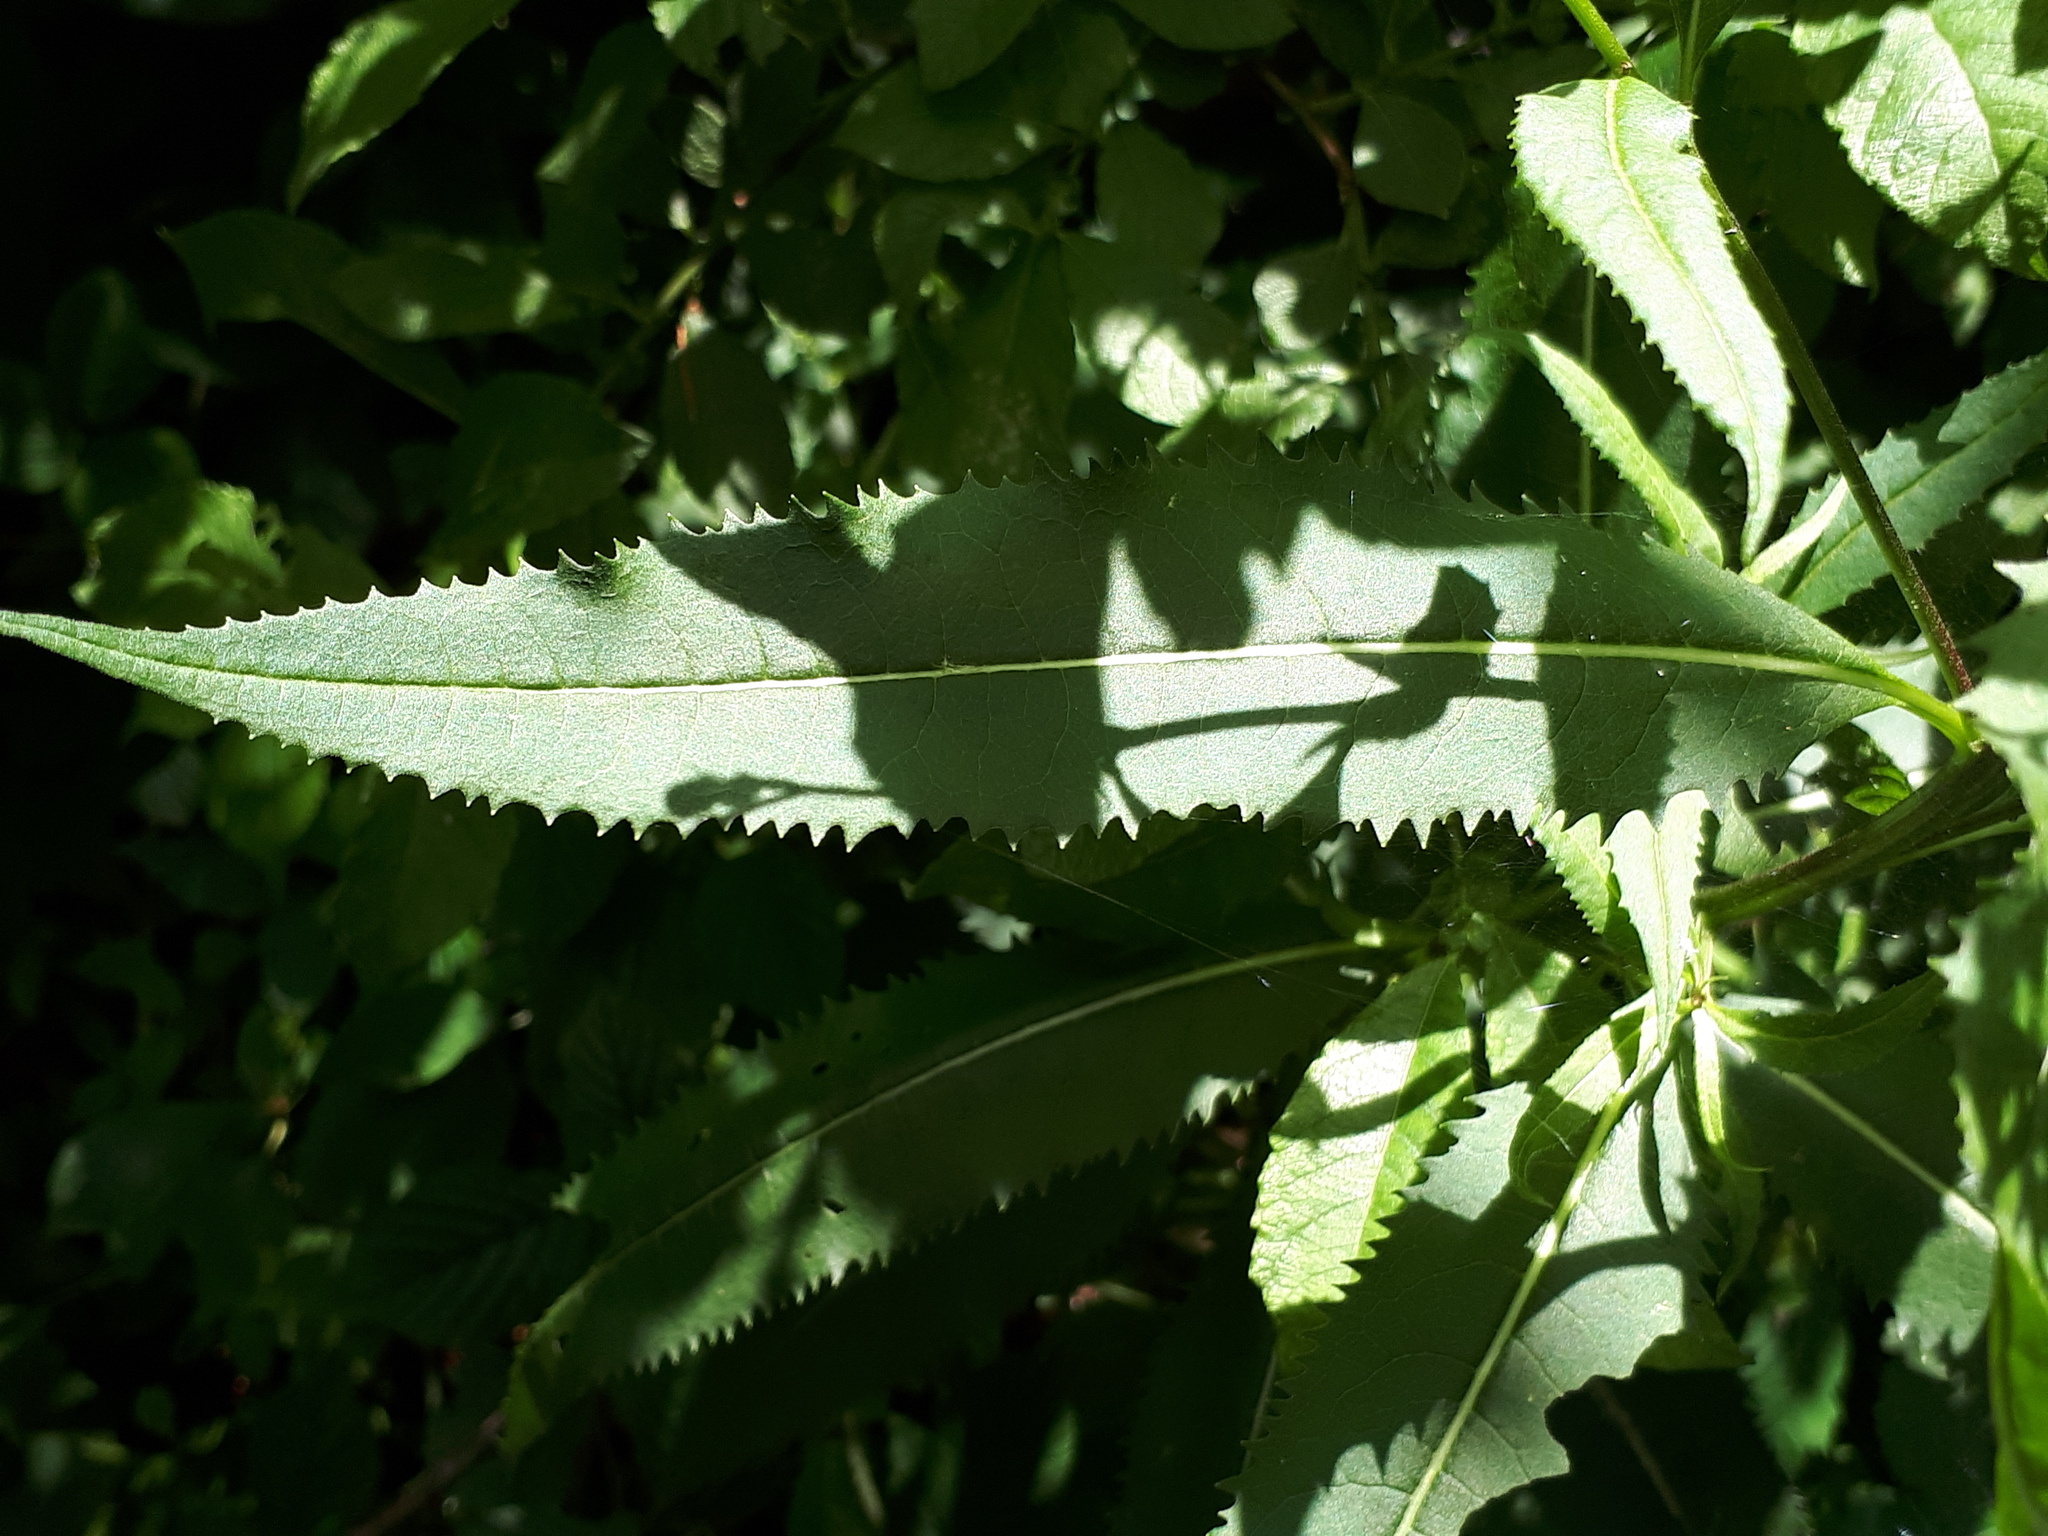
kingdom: Plantae
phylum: Tracheophyta
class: Magnoliopsida
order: Asterales
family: Asteraceae
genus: Senecio
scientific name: Senecio ovatus
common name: Wood ragwort
